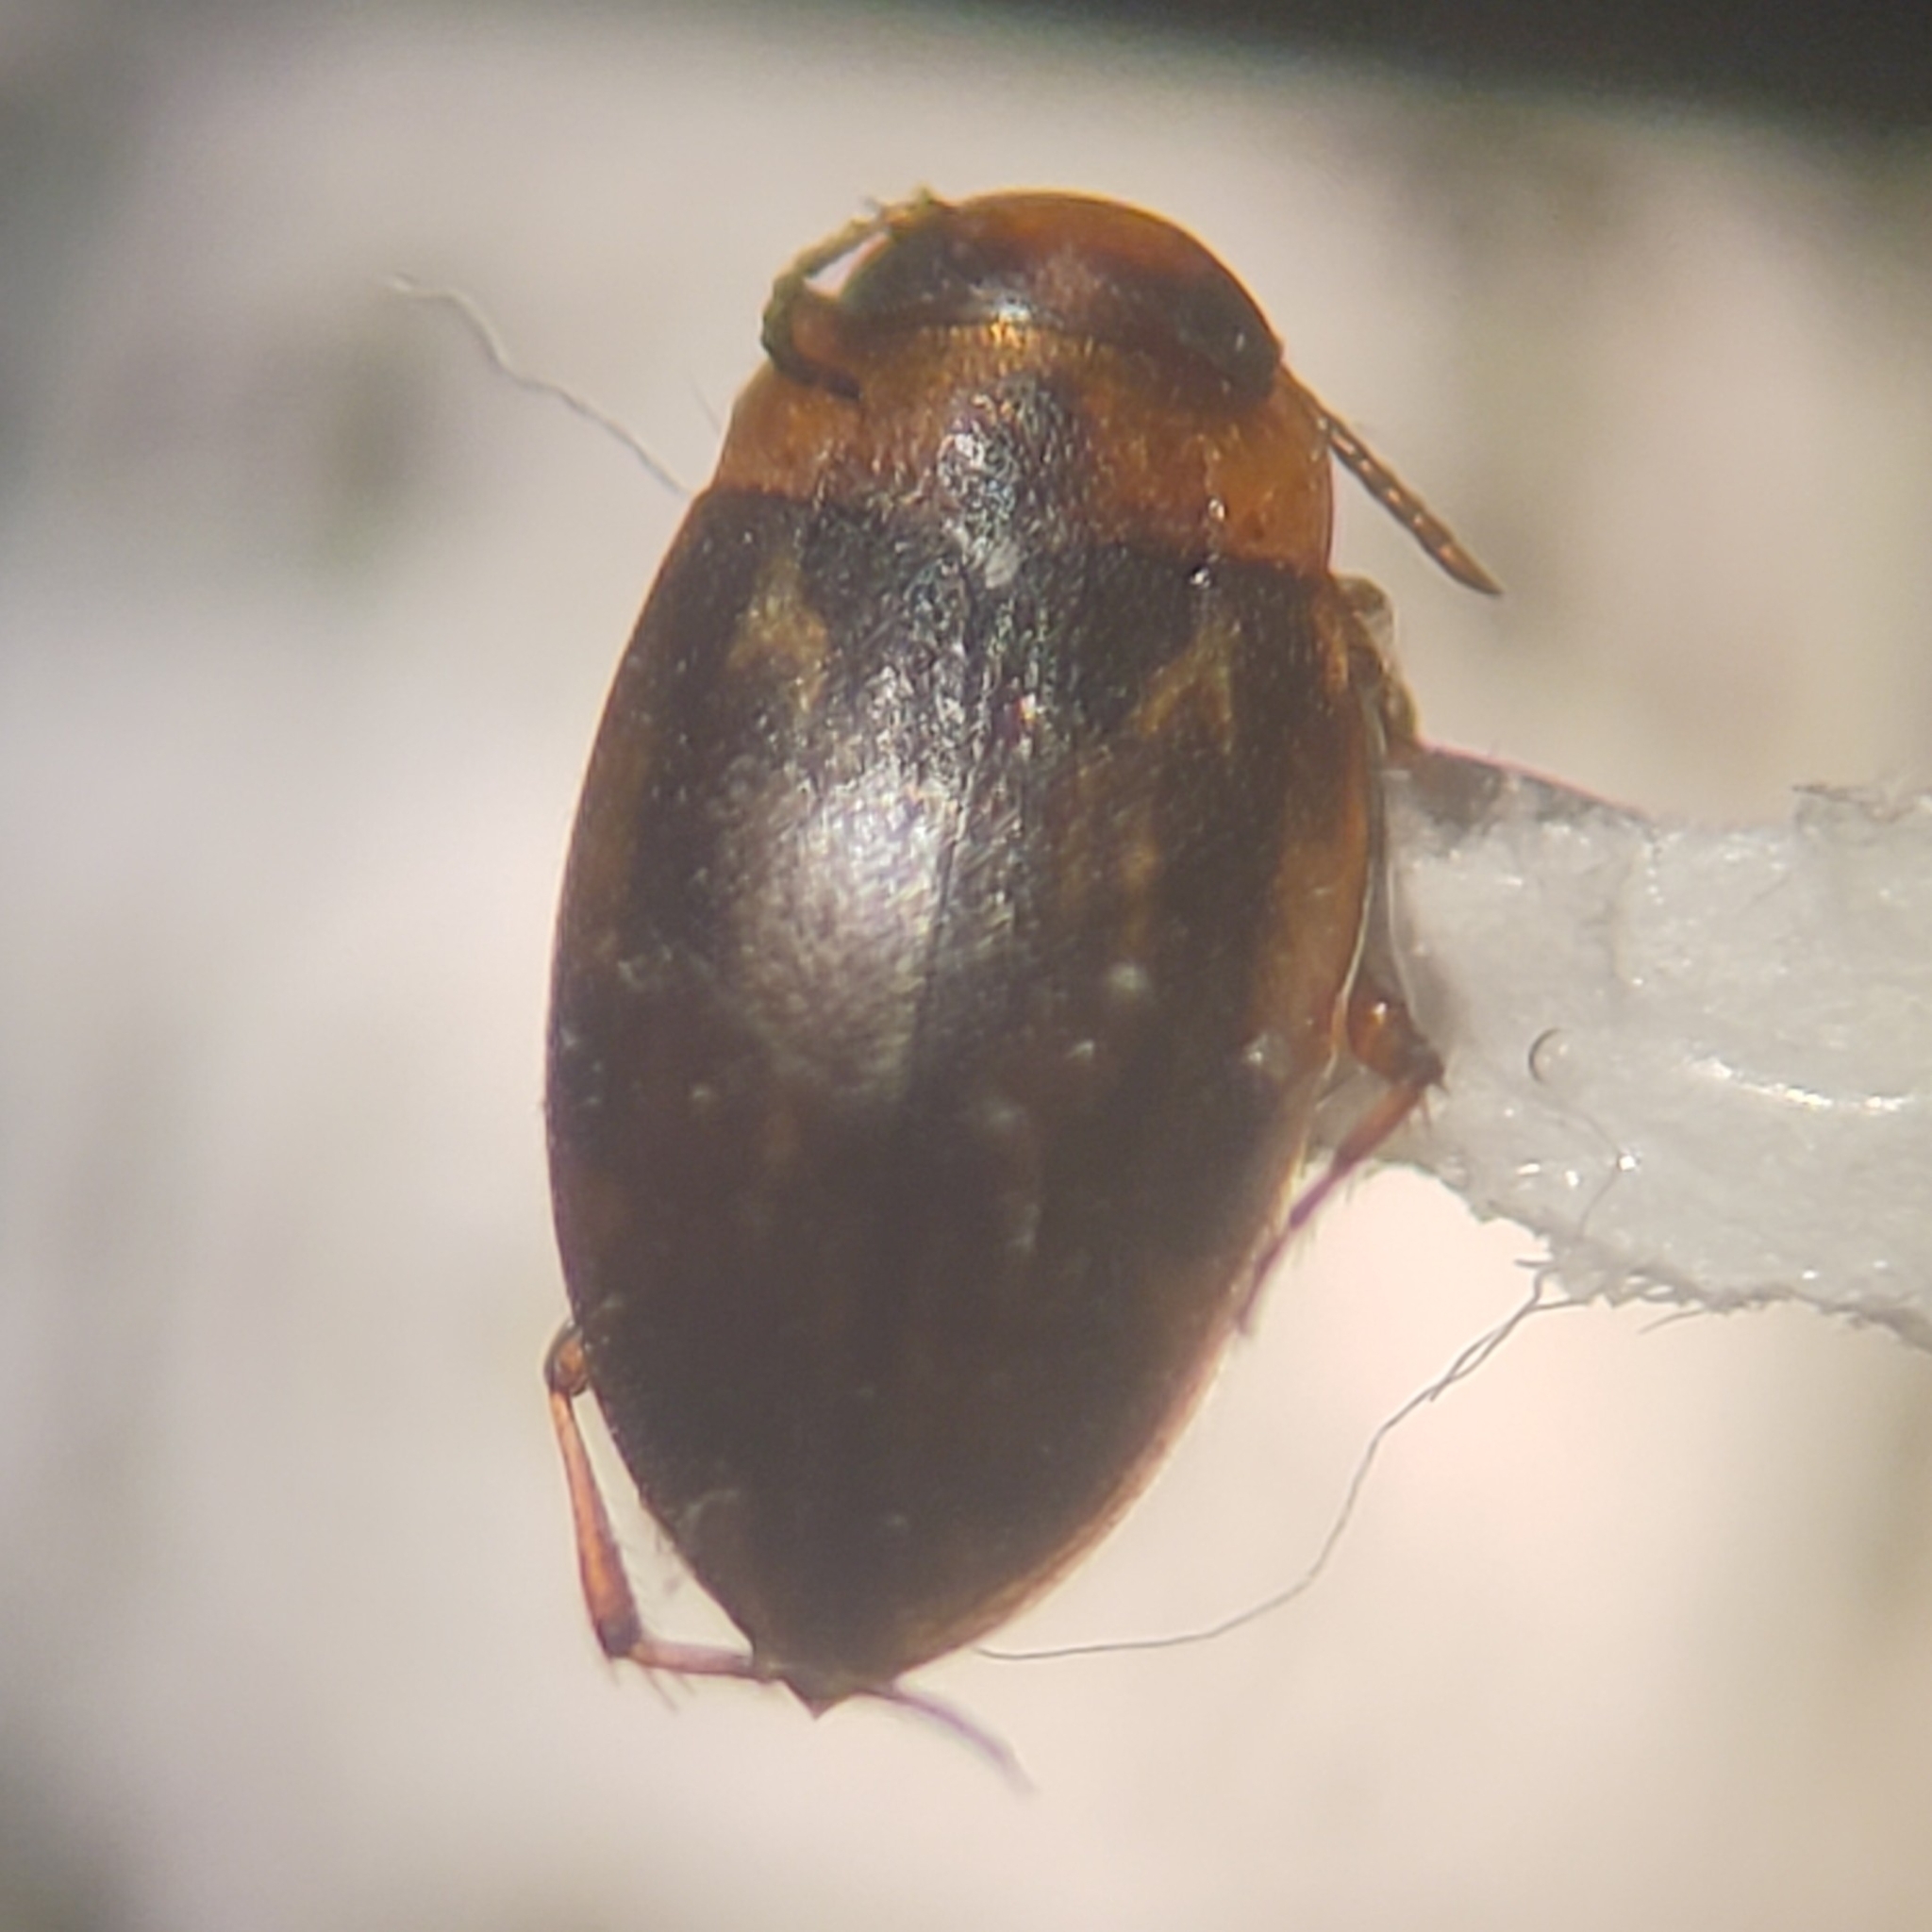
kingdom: Animalia
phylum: Arthropoda
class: Insecta
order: Coleoptera
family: Dytiscidae
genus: Liodessus
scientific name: Liodessus obscurellus
